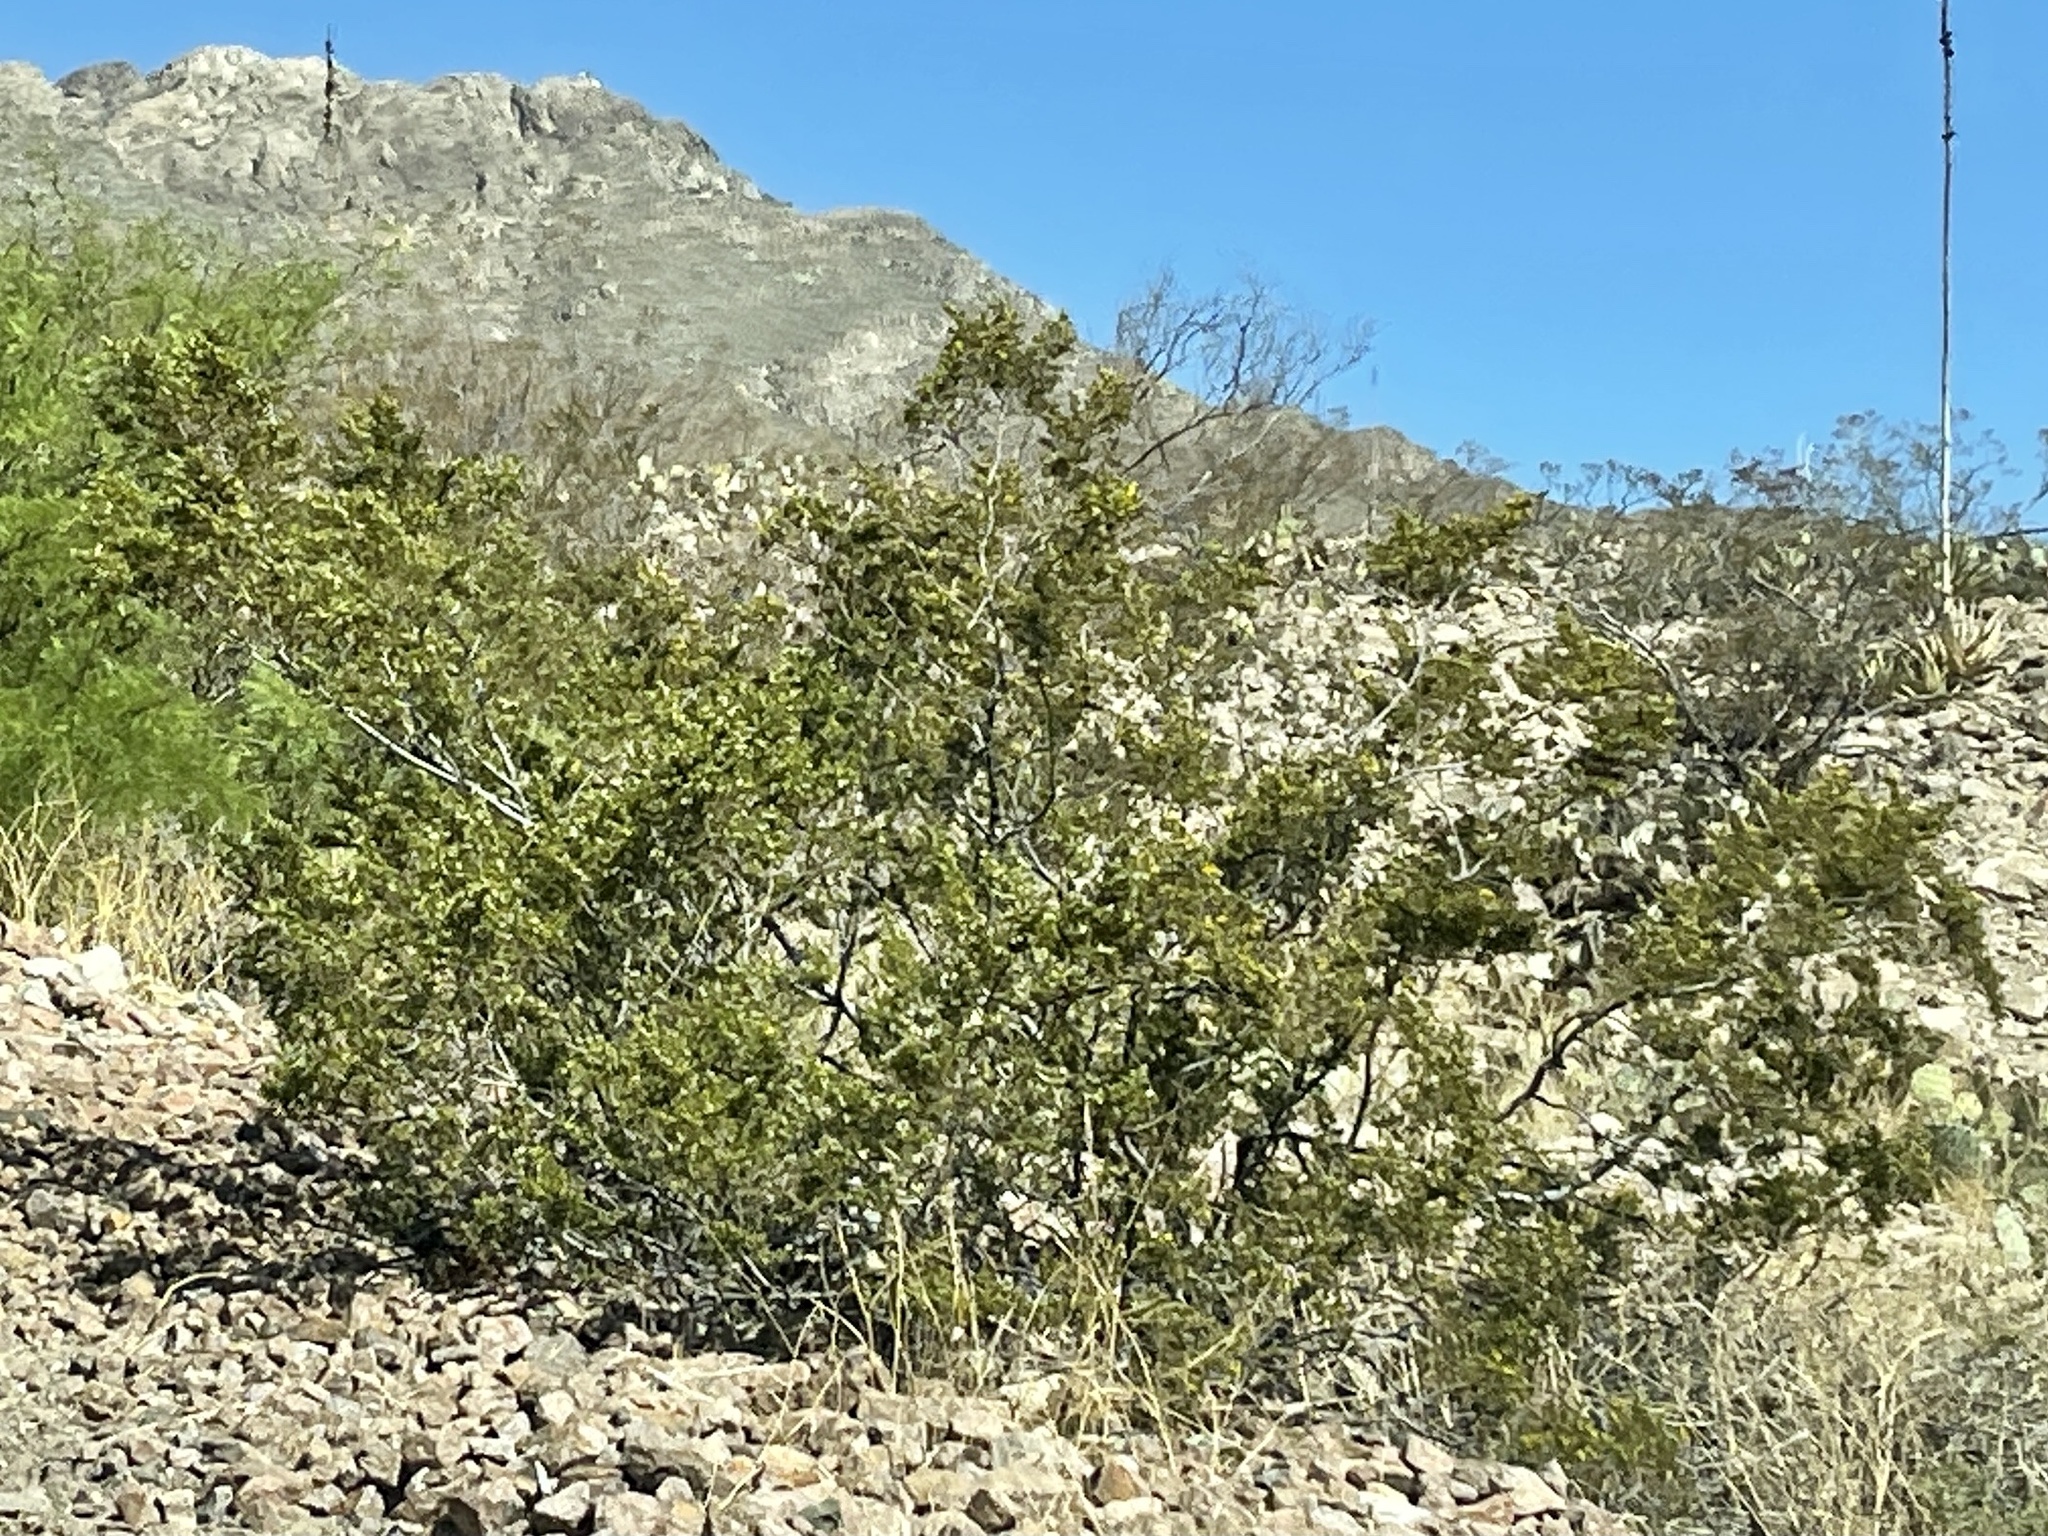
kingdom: Plantae
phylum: Tracheophyta
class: Magnoliopsida
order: Zygophyllales
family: Zygophyllaceae
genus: Larrea
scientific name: Larrea tridentata
